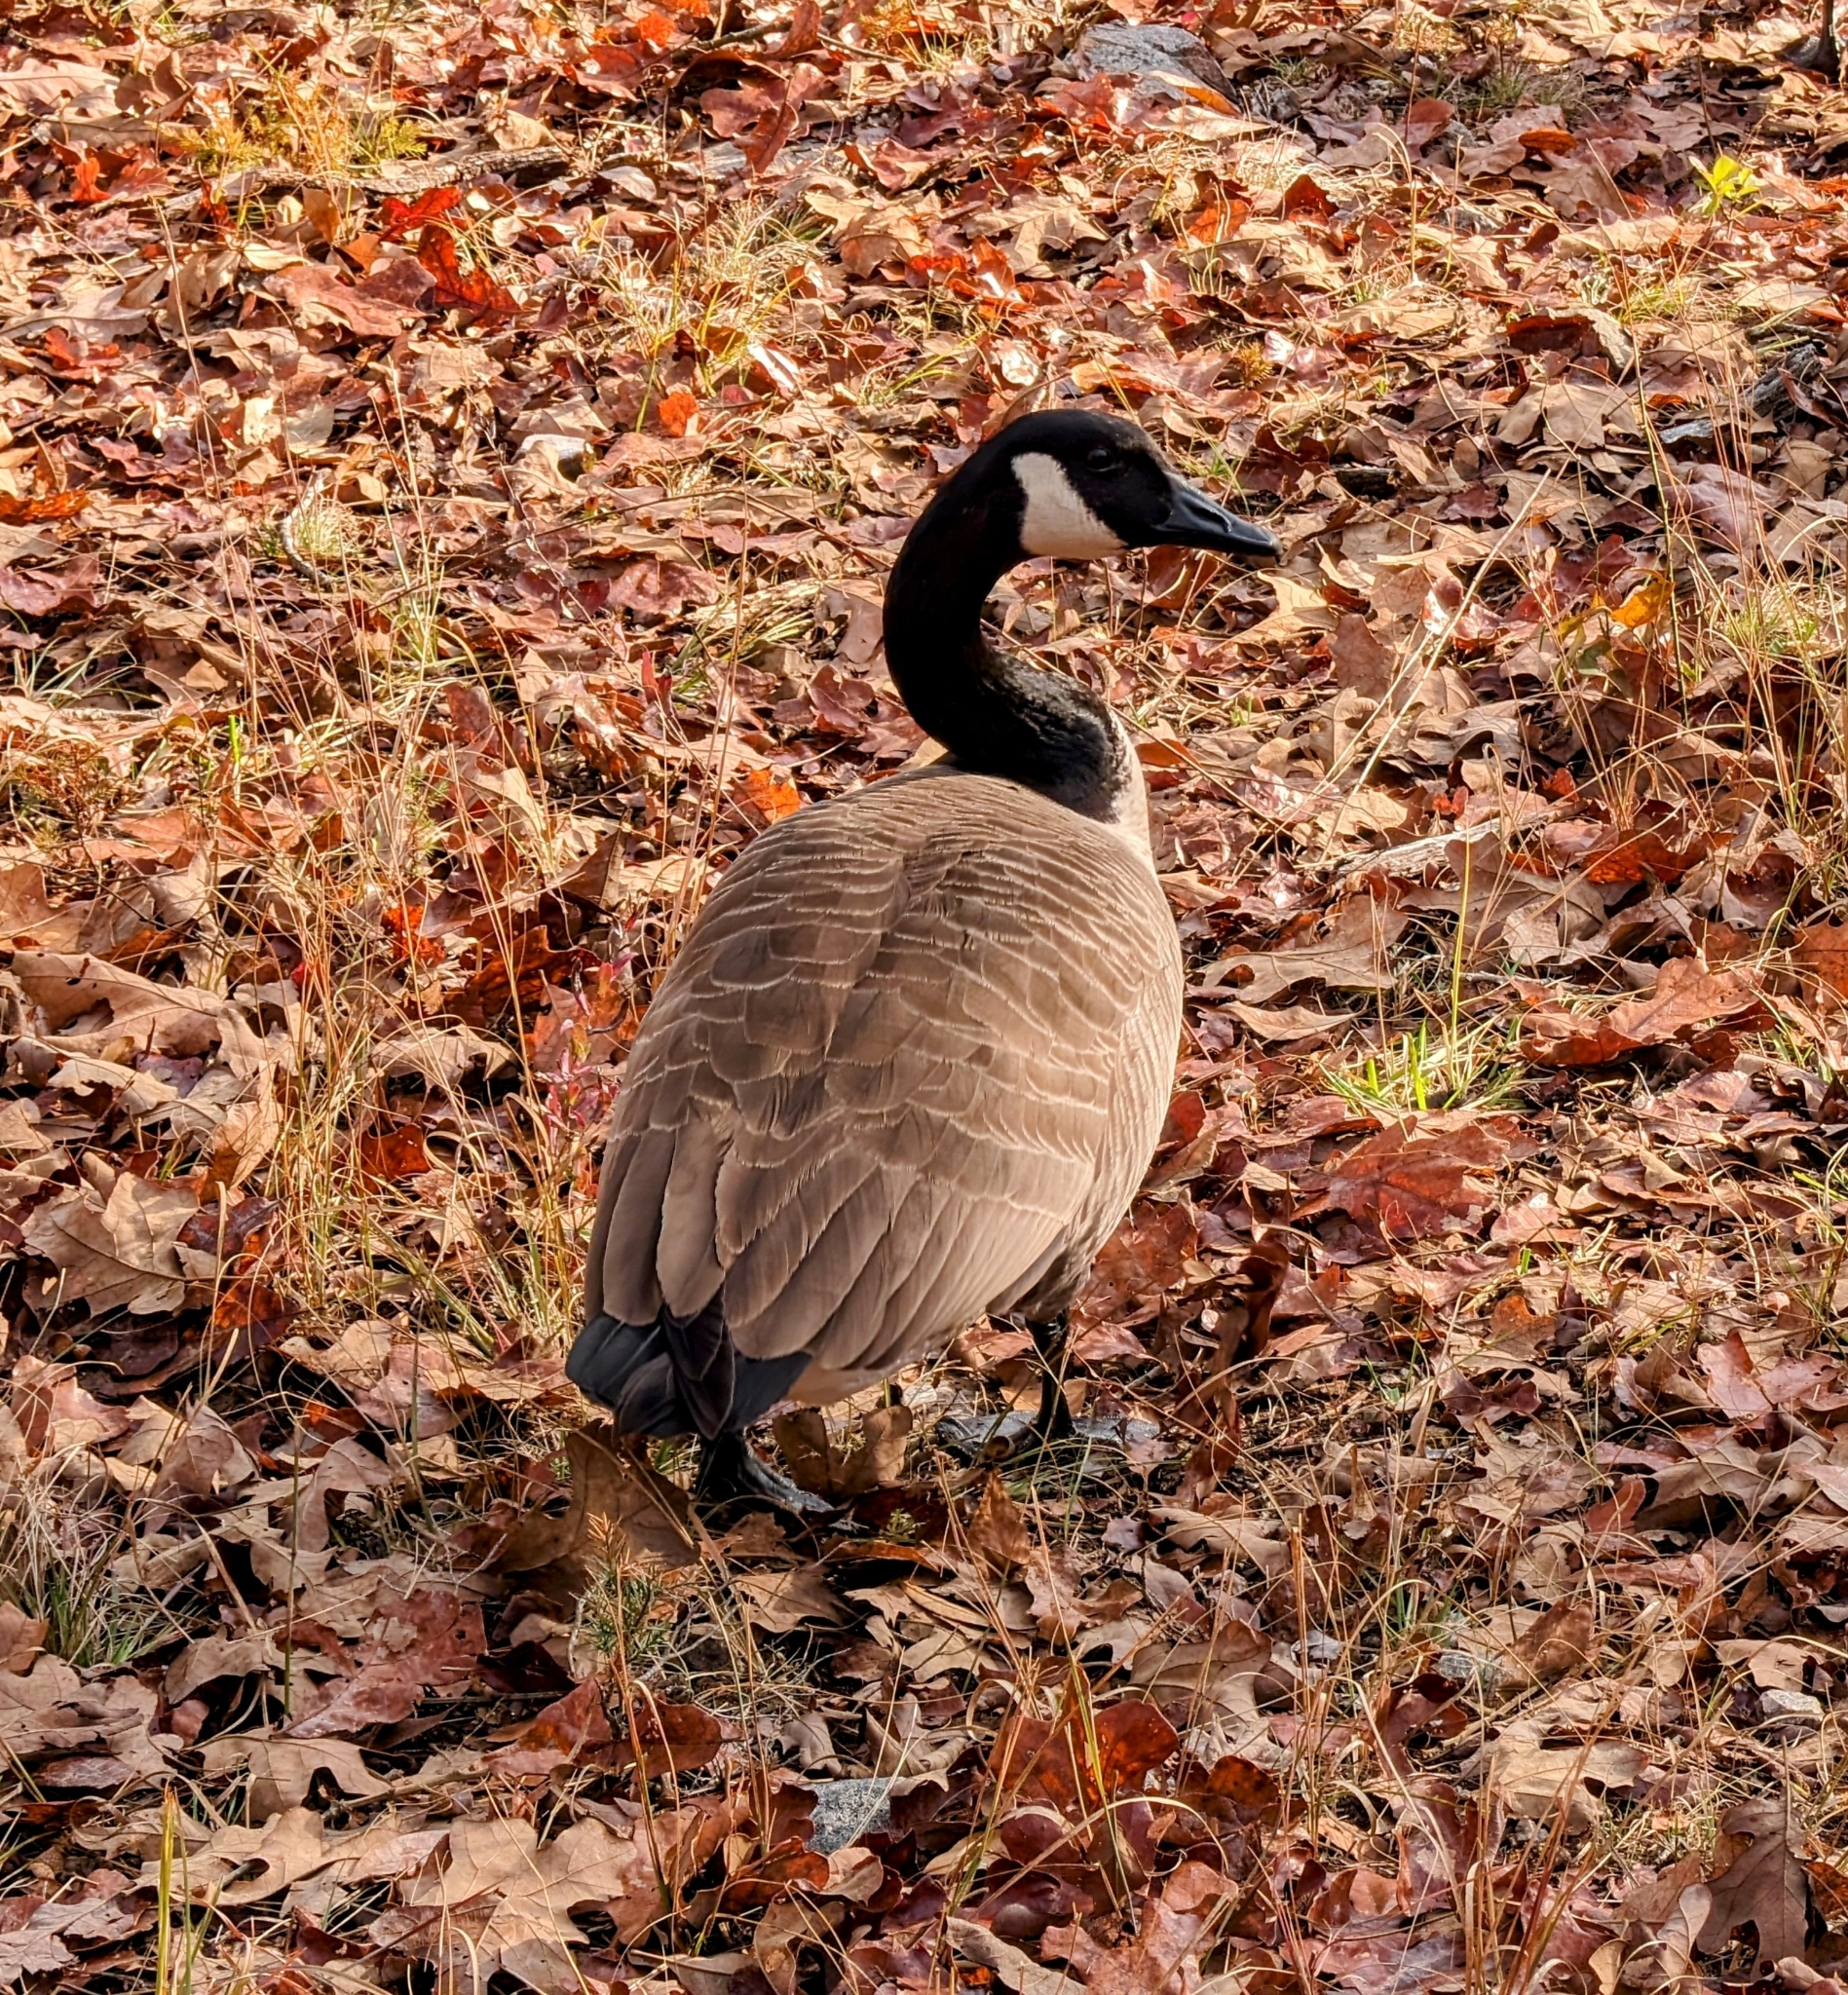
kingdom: Animalia
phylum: Chordata
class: Aves
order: Anseriformes
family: Anatidae
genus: Branta
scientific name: Branta canadensis
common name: Canada goose
